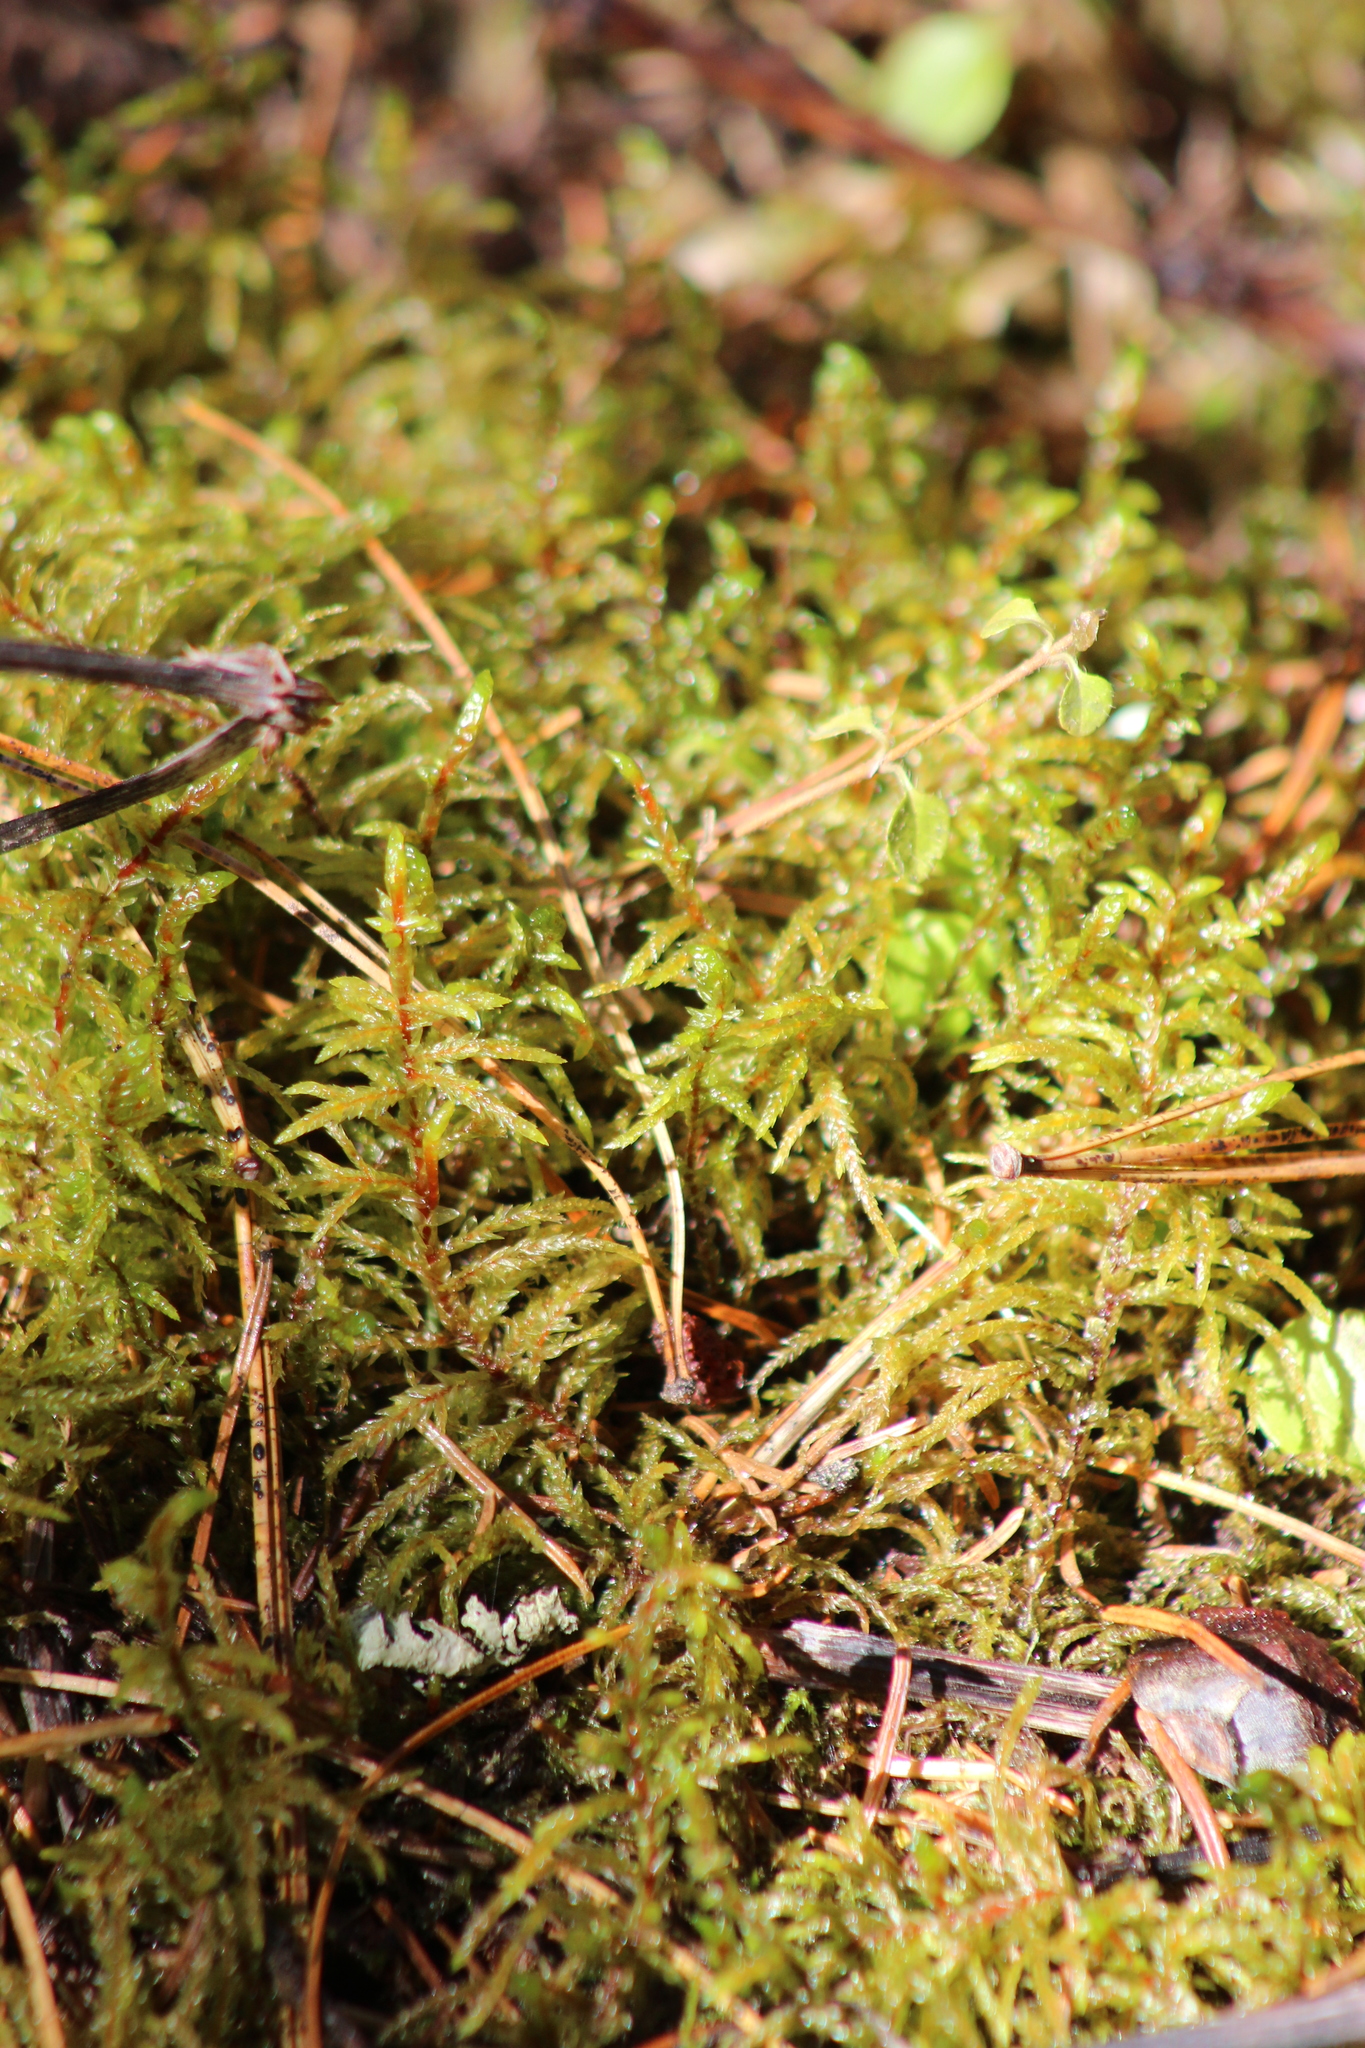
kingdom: Plantae
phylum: Bryophyta
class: Bryopsida
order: Hypnales
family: Hylocomiaceae
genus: Pleurozium
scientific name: Pleurozium schreberi
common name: Red-stemmed feather moss
